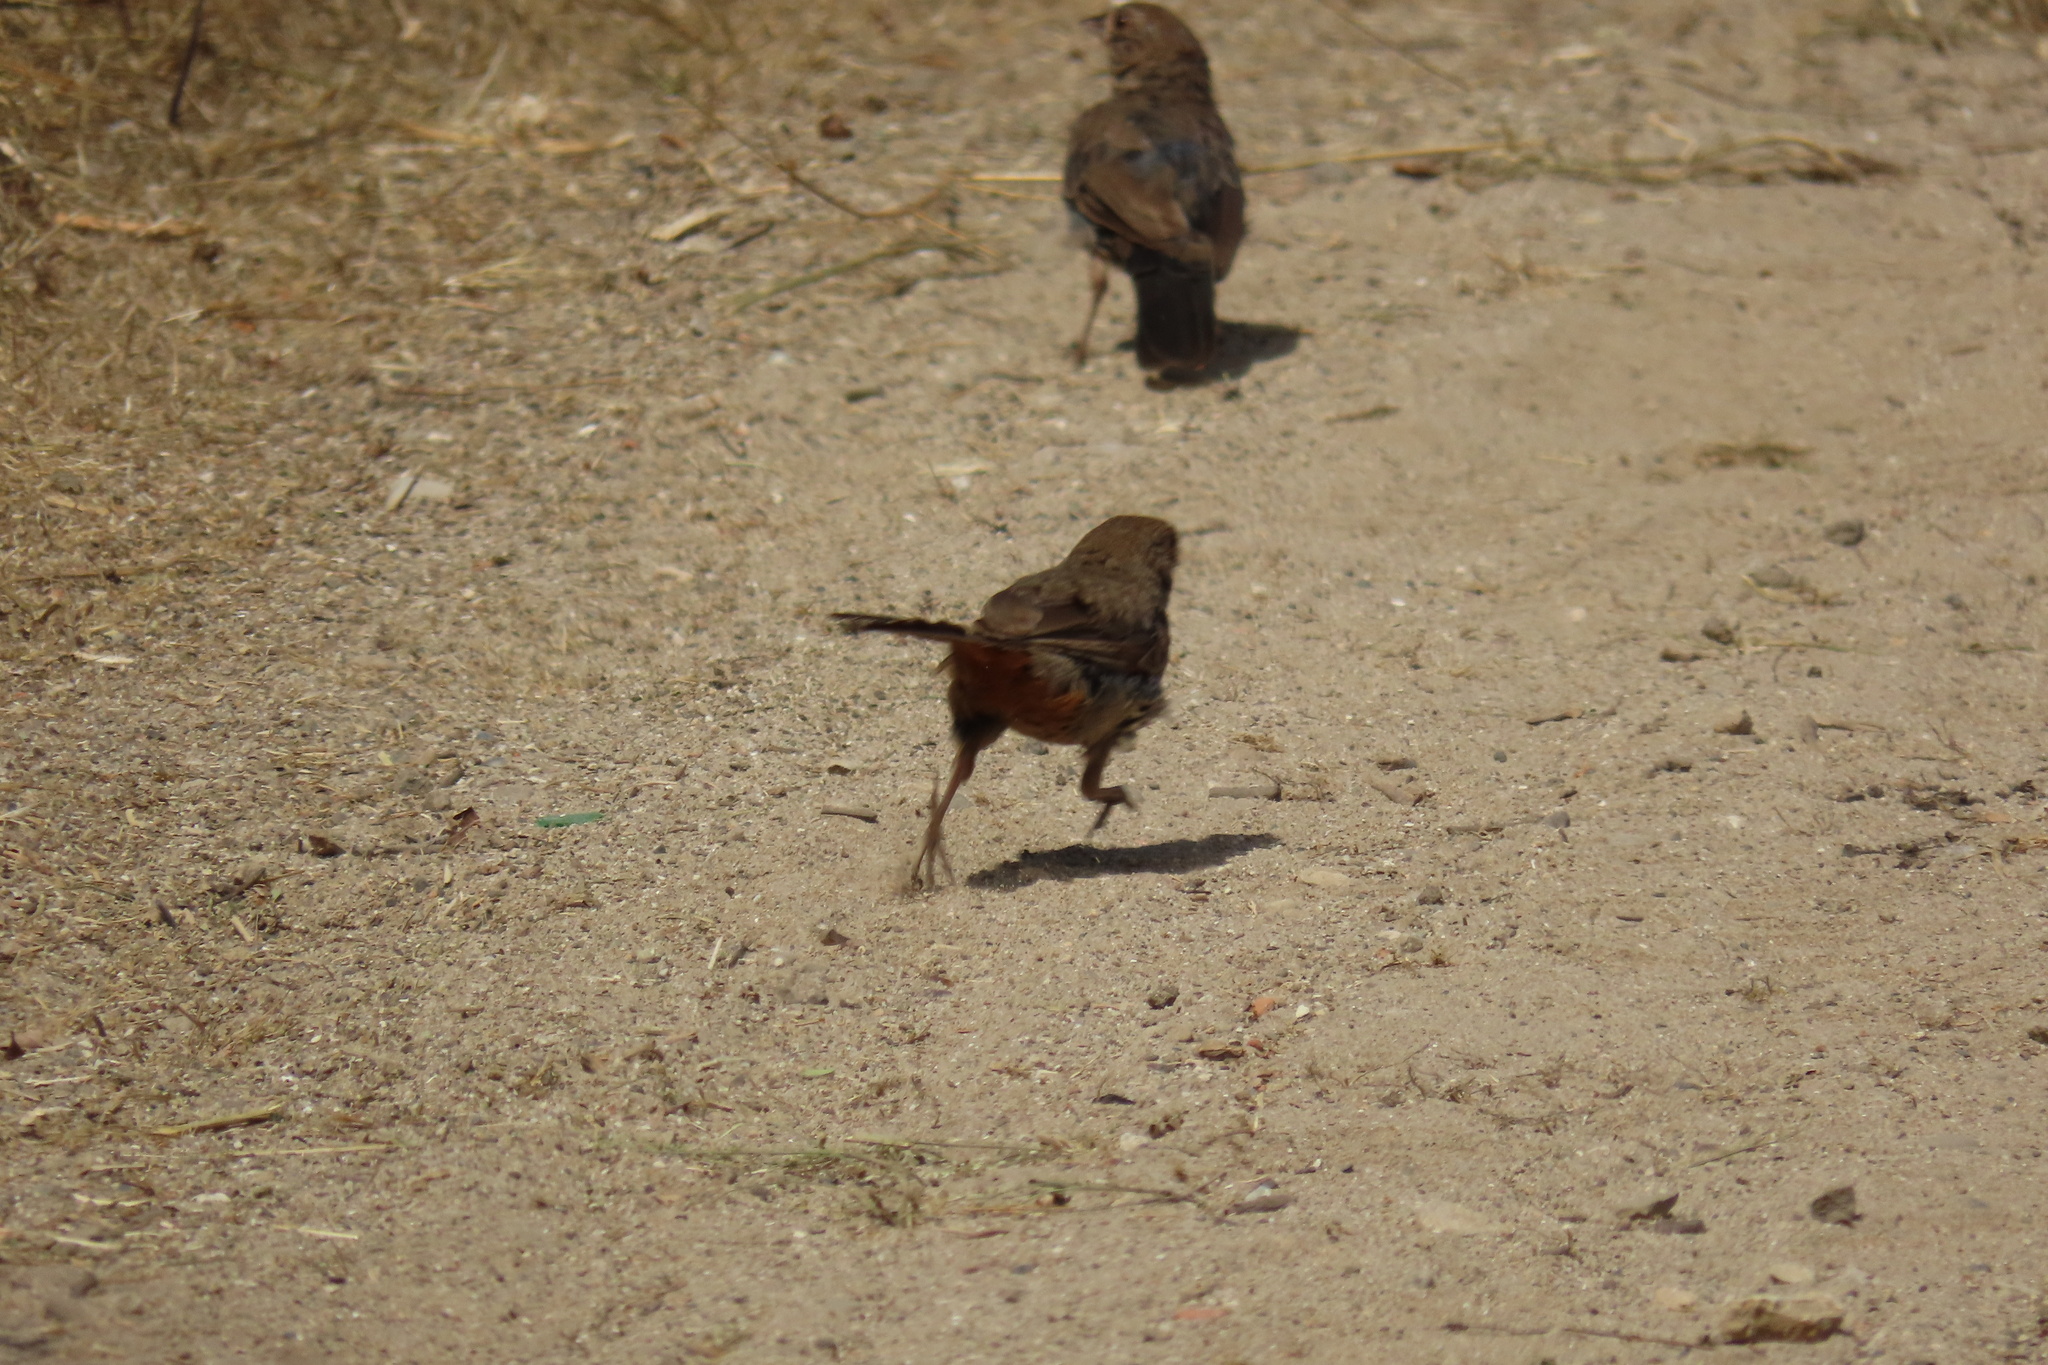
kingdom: Animalia
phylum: Chordata
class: Aves
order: Passeriformes
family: Passerellidae
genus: Melozone
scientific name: Melozone crissalis
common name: California towhee
